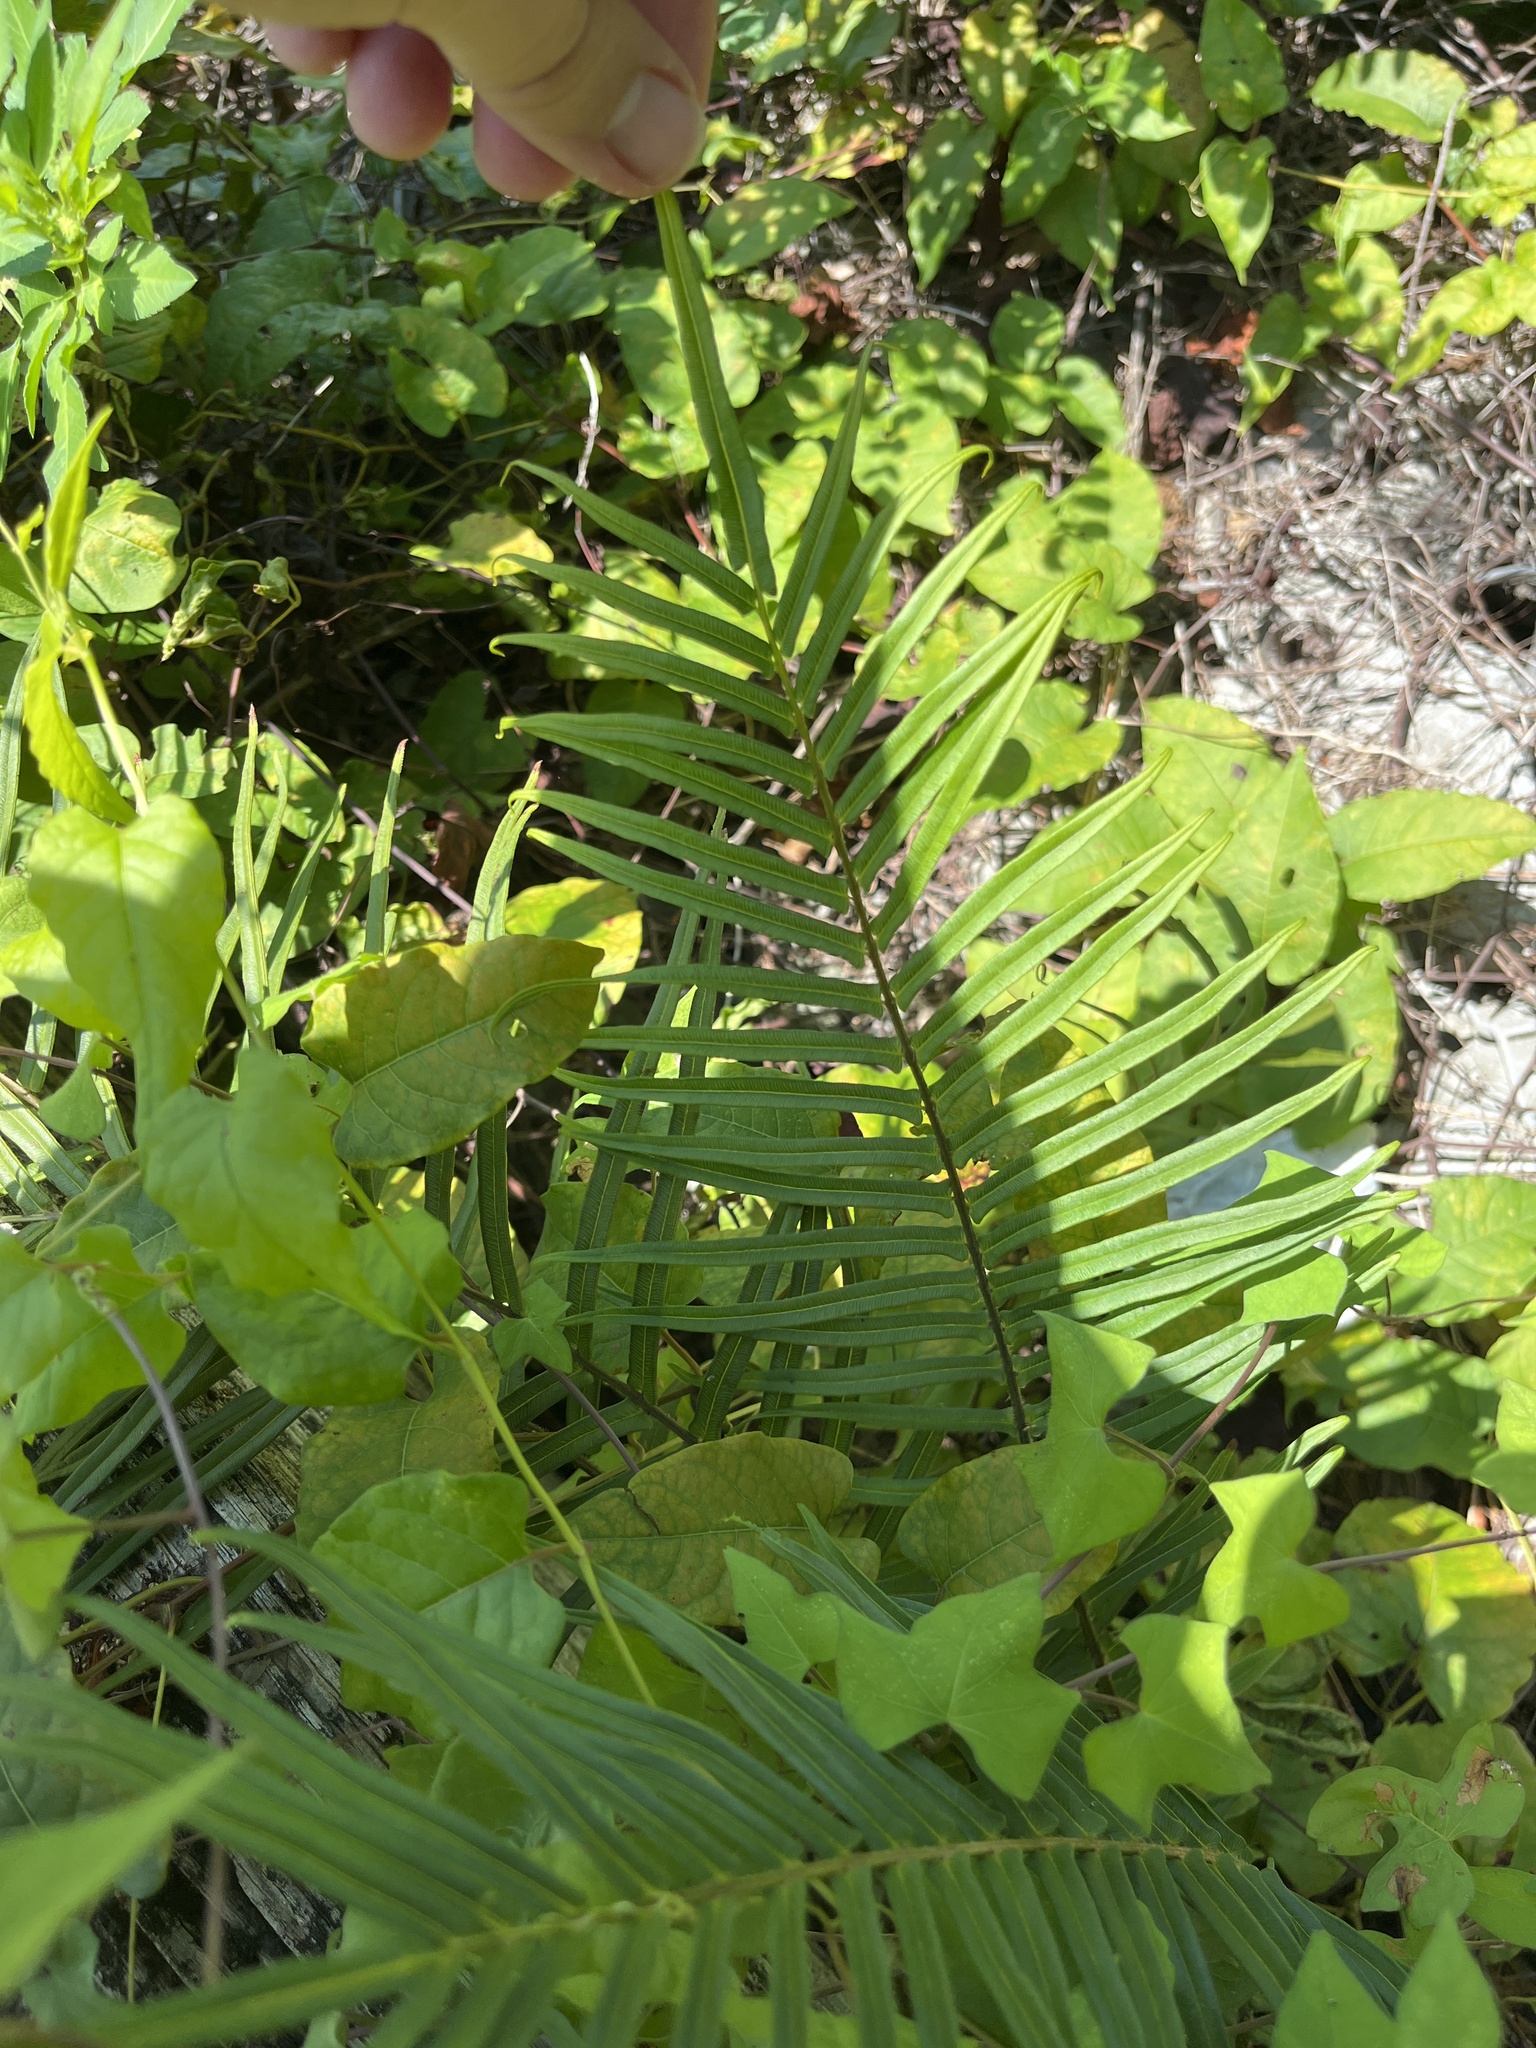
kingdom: Plantae
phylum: Tracheophyta
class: Polypodiopsida
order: Polypodiales
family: Pteridaceae
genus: Pteris
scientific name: Pteris vittata
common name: Ladder brake
